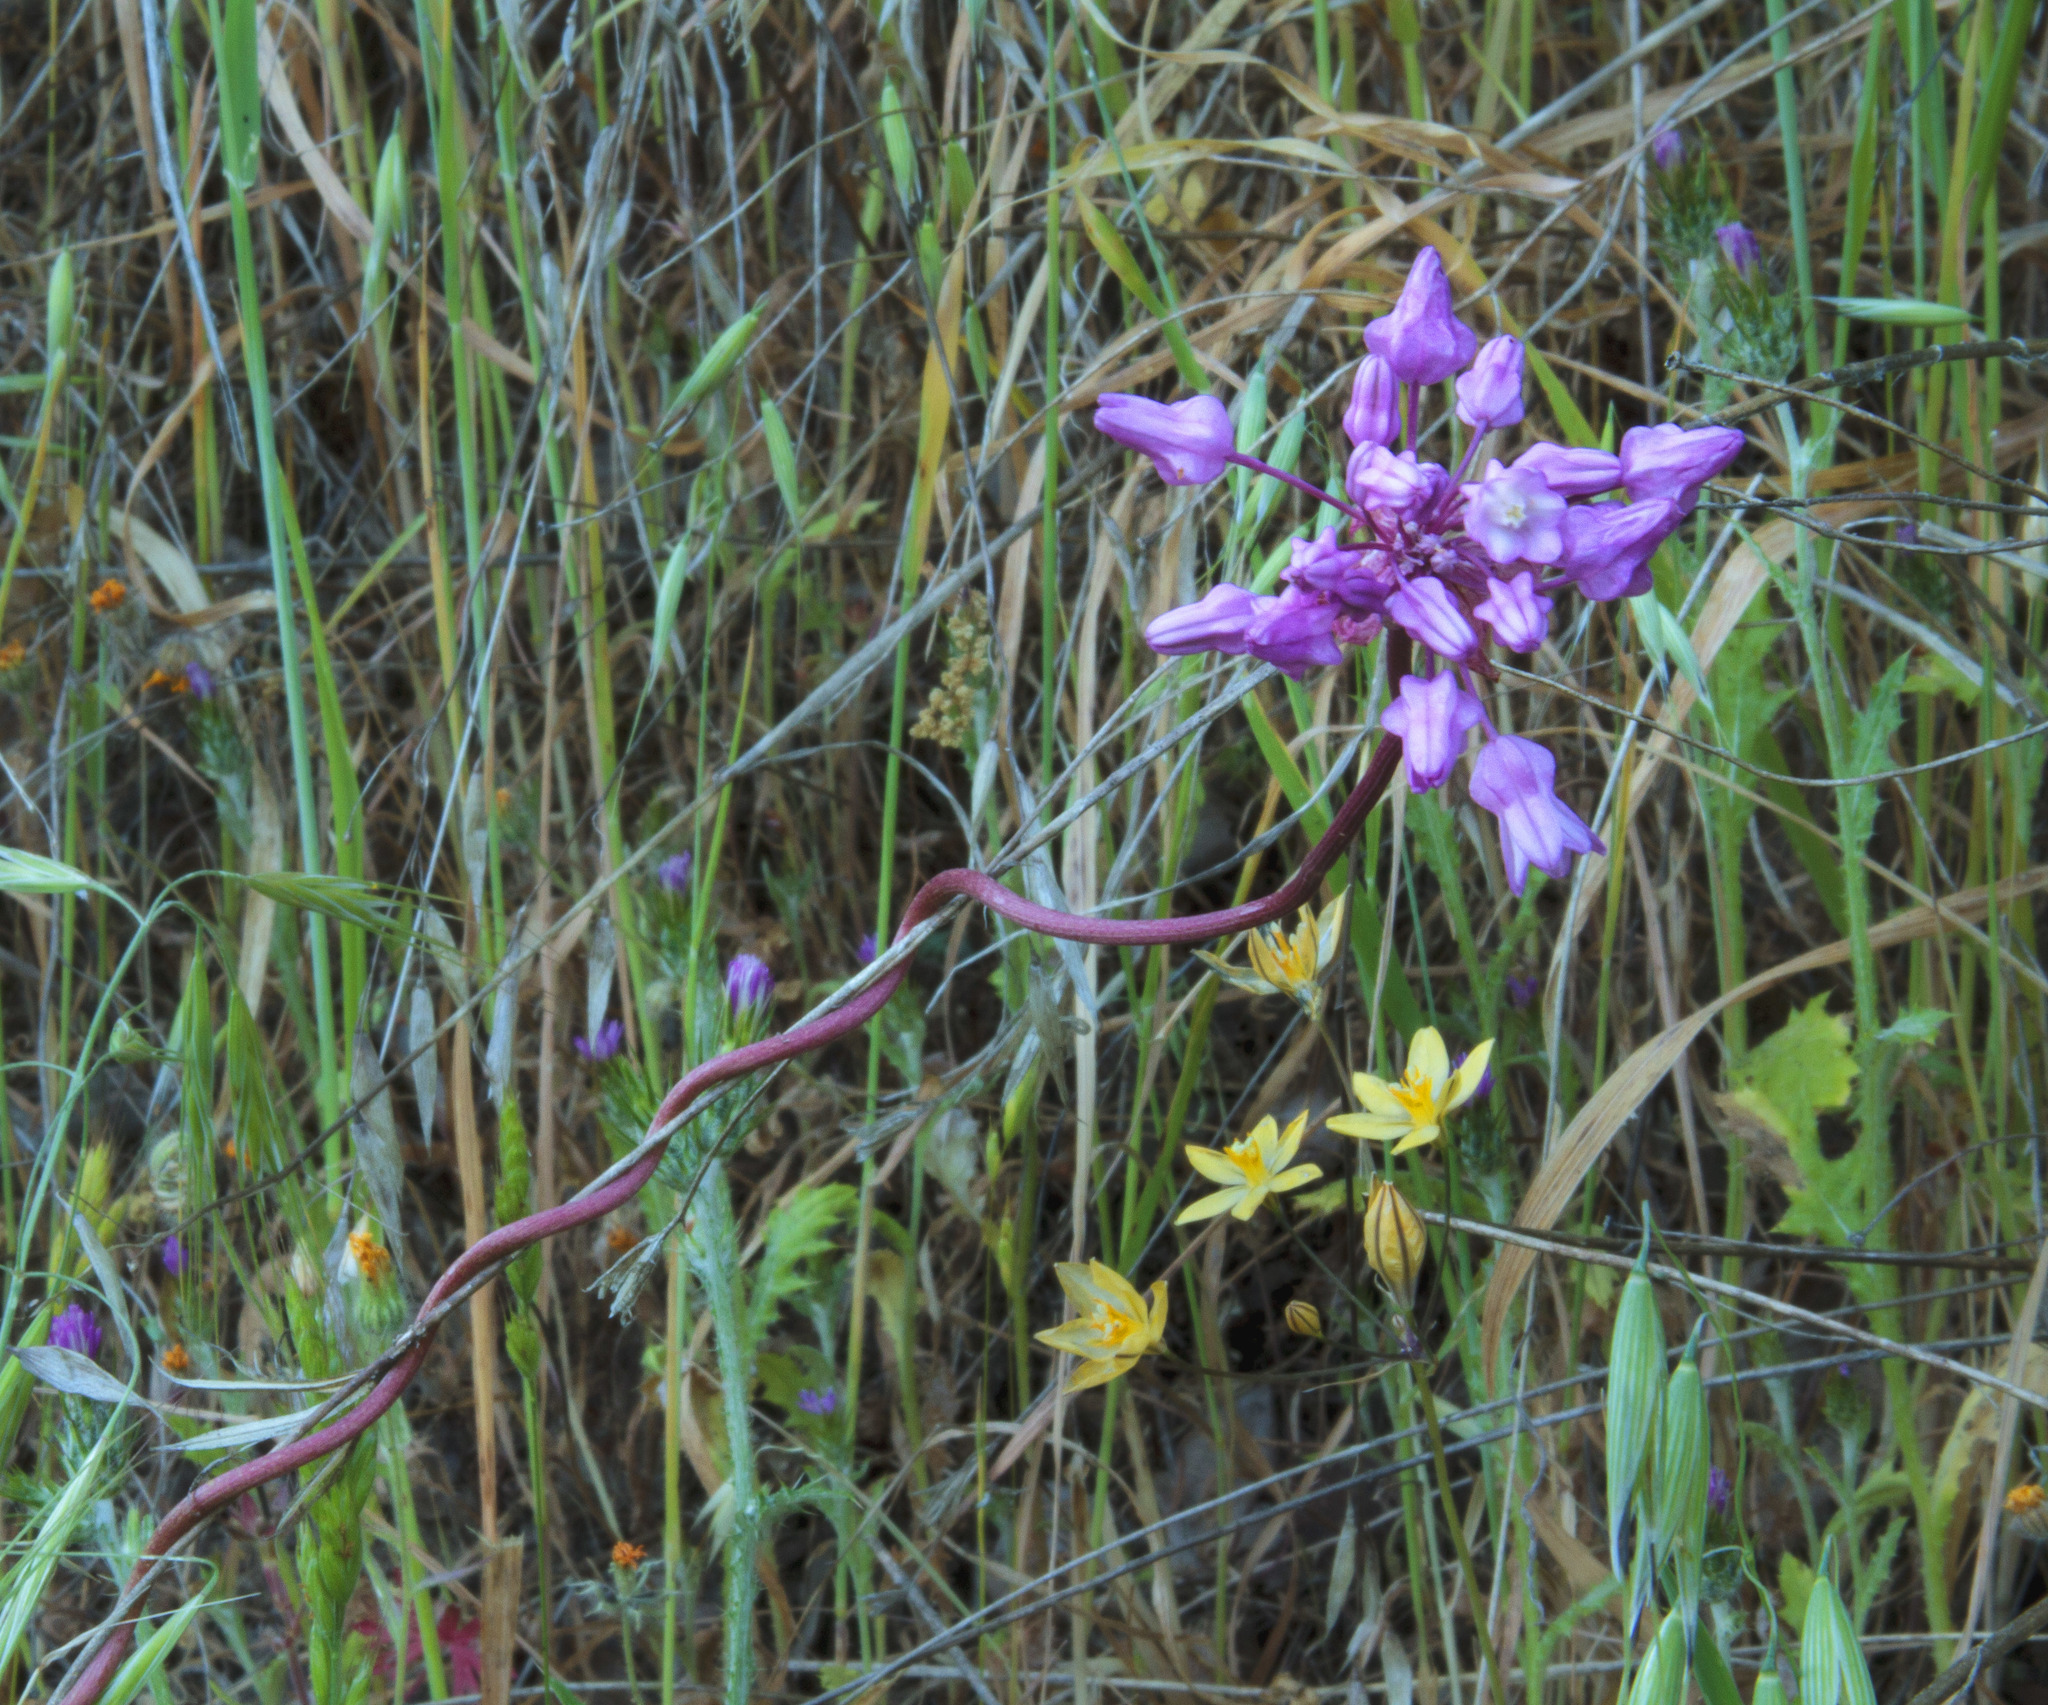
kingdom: Plantae
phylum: Tracheophyta
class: Liliopsida
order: Asparagales
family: Asparagaceae
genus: Dichelostemma
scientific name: Dichelostemma volubile
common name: Trining brodiaea
